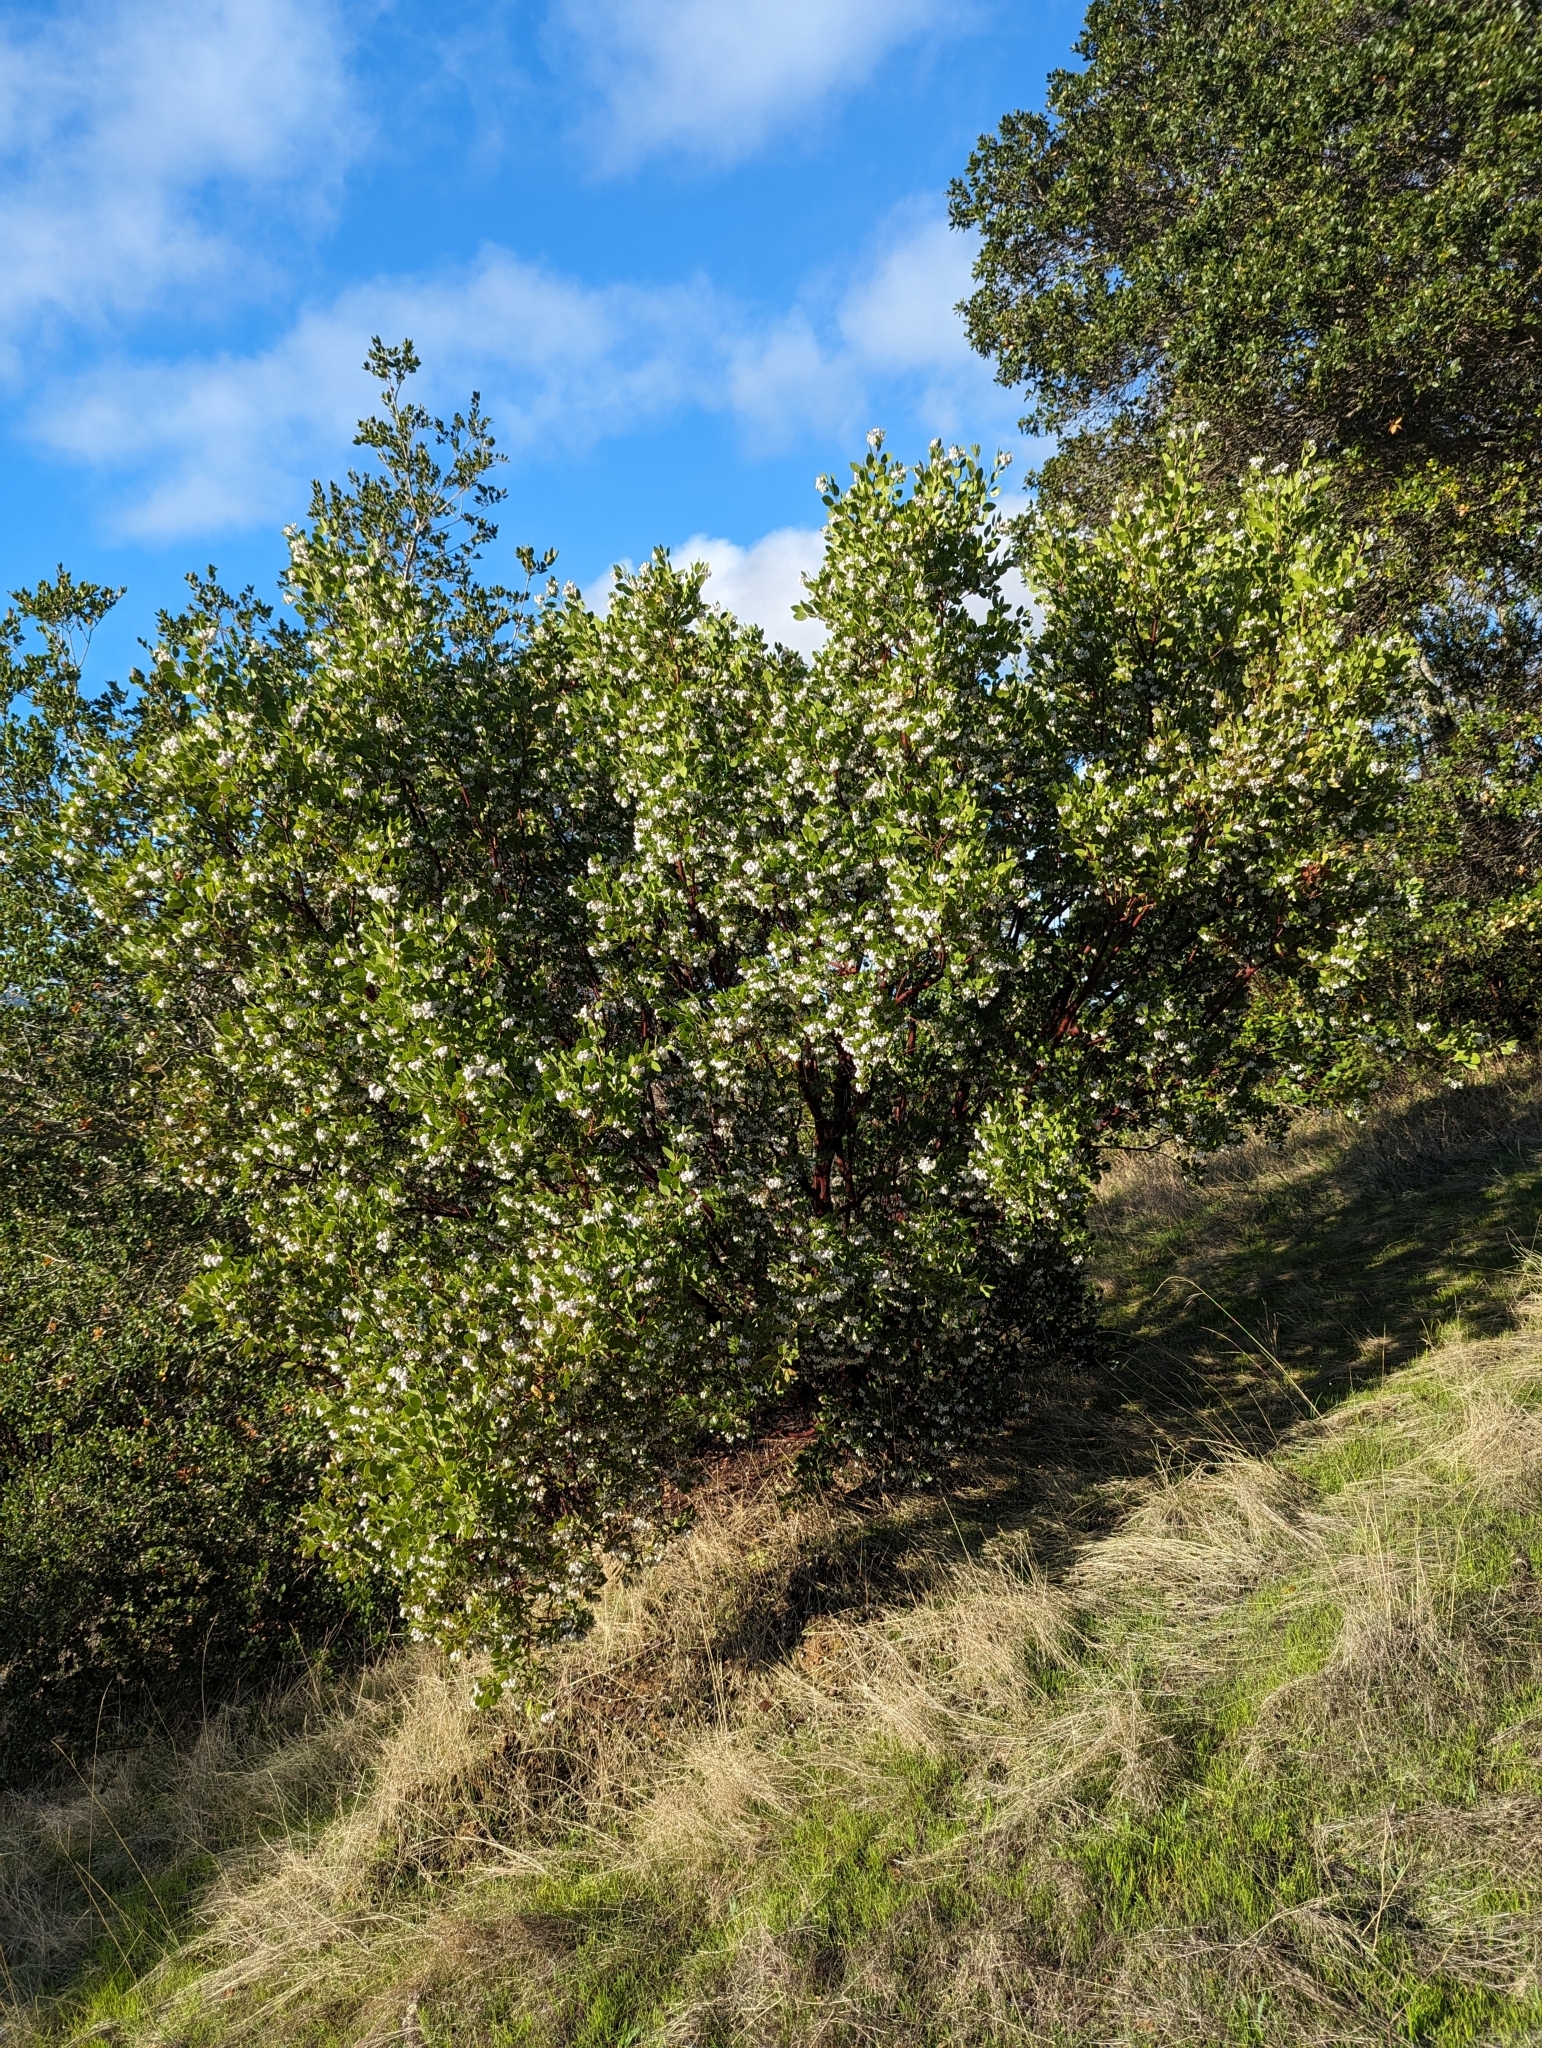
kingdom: Plantae
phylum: Tracheophyta
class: Magnoliopsida
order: Ericales
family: Ericaceae
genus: Arctostaphylos
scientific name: Arctostaphylos manzanita
